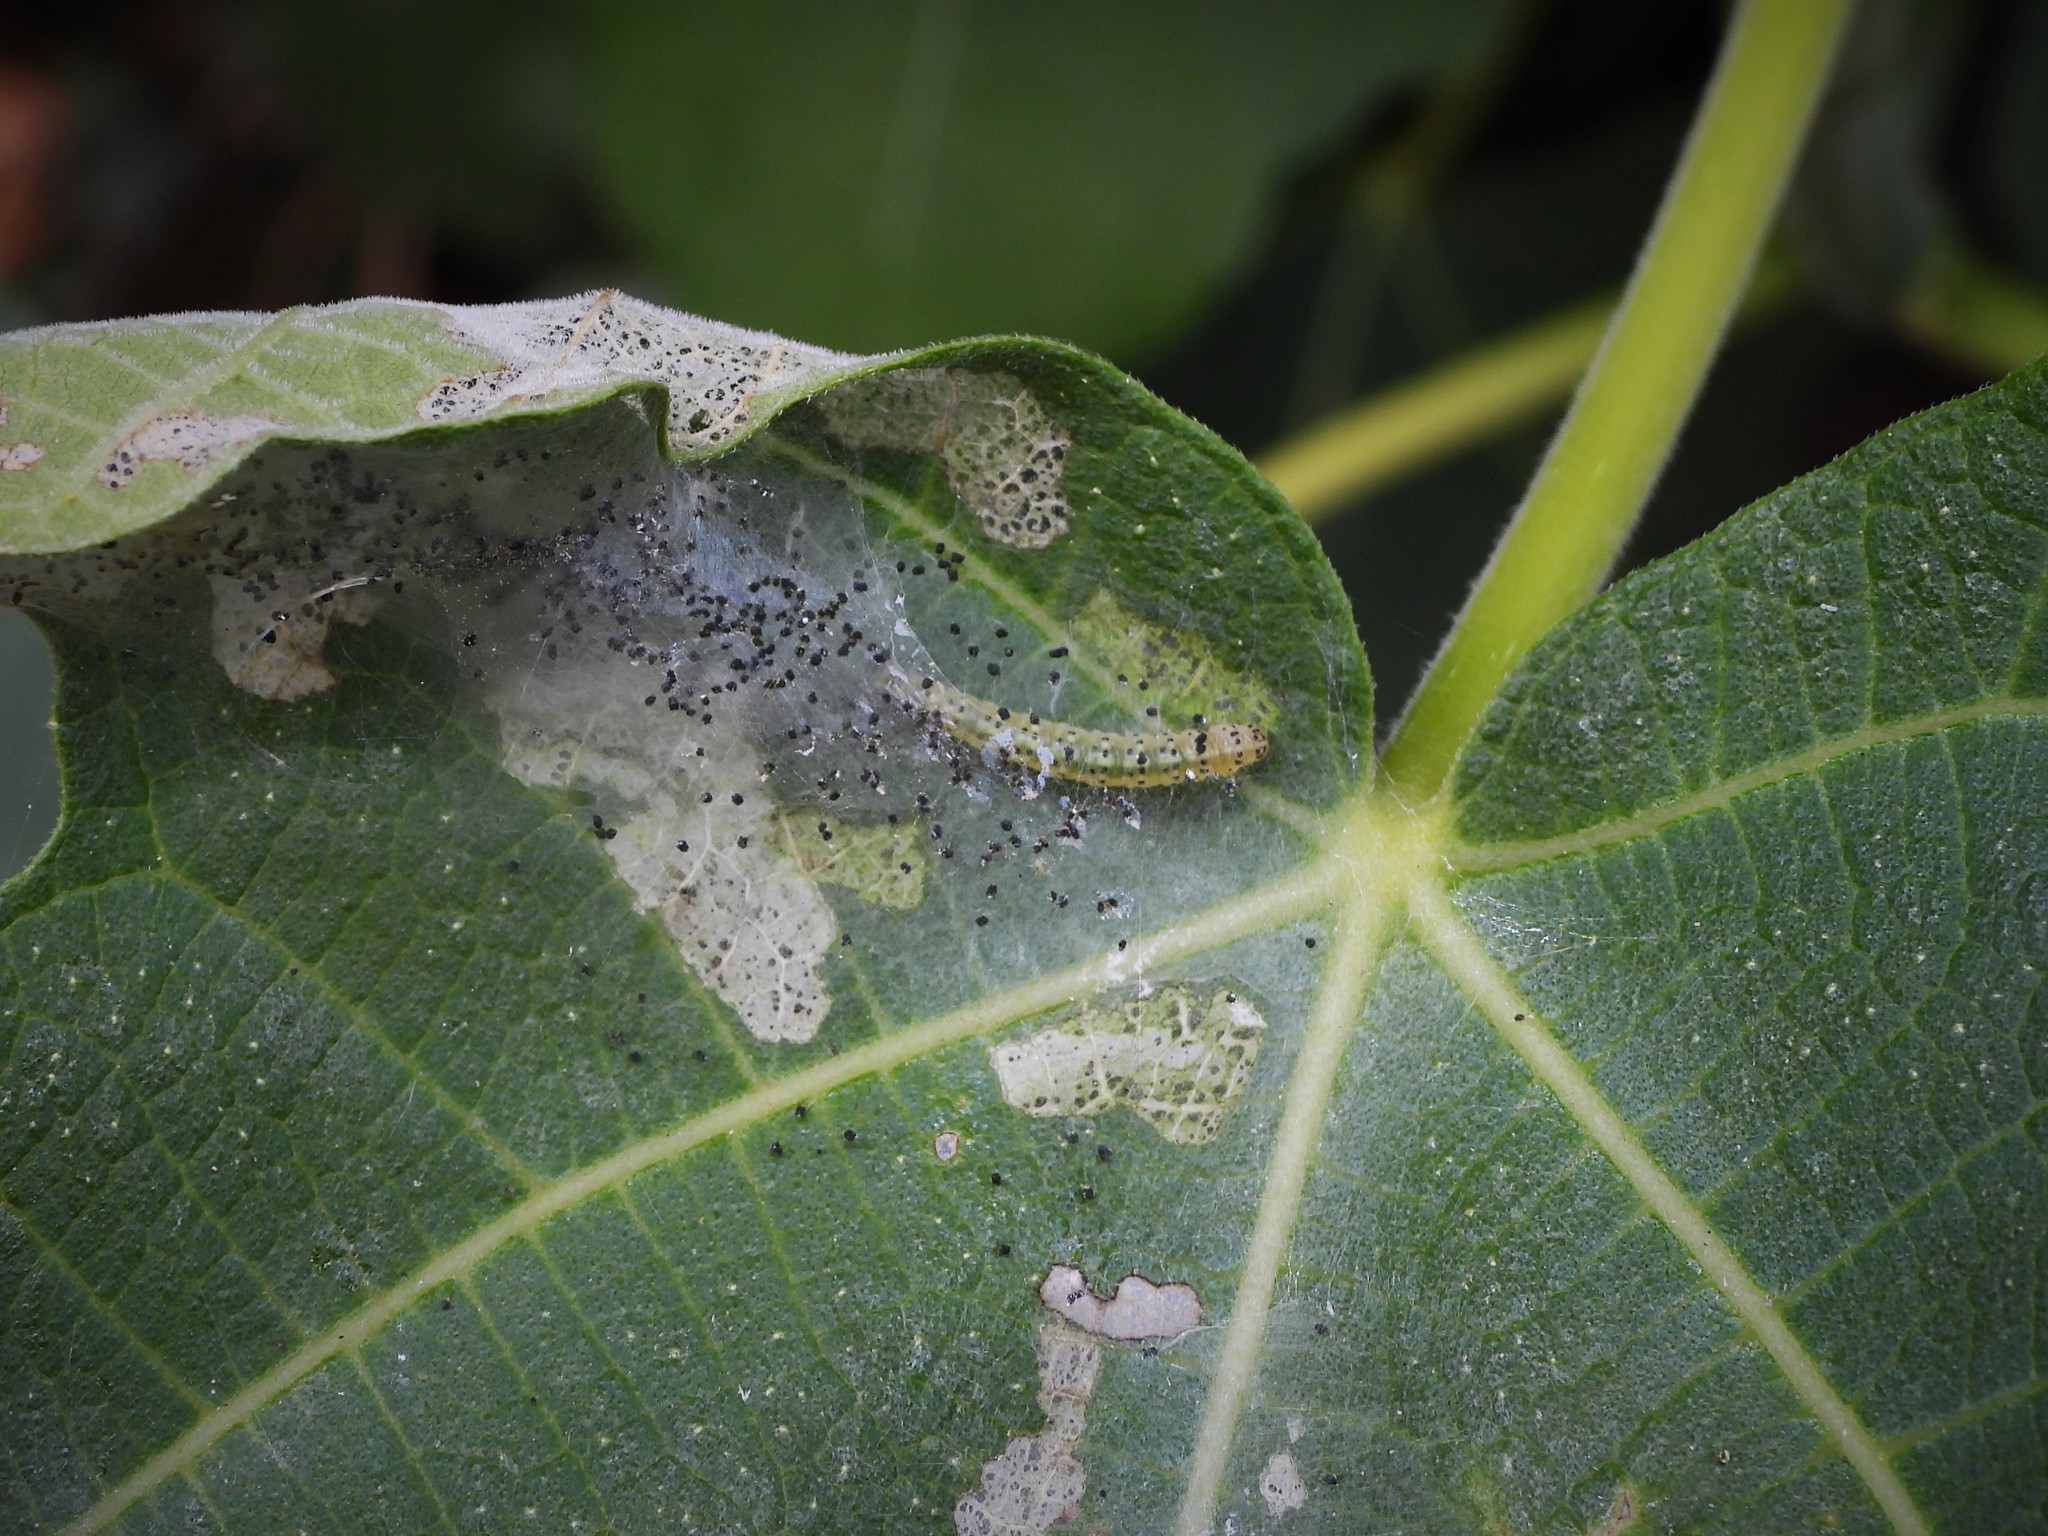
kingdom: Animalia
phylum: Arthropoda
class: Insecta
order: Lepidoptera
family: Choreutidae
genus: Anthophila
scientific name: Anthophila nemorana
